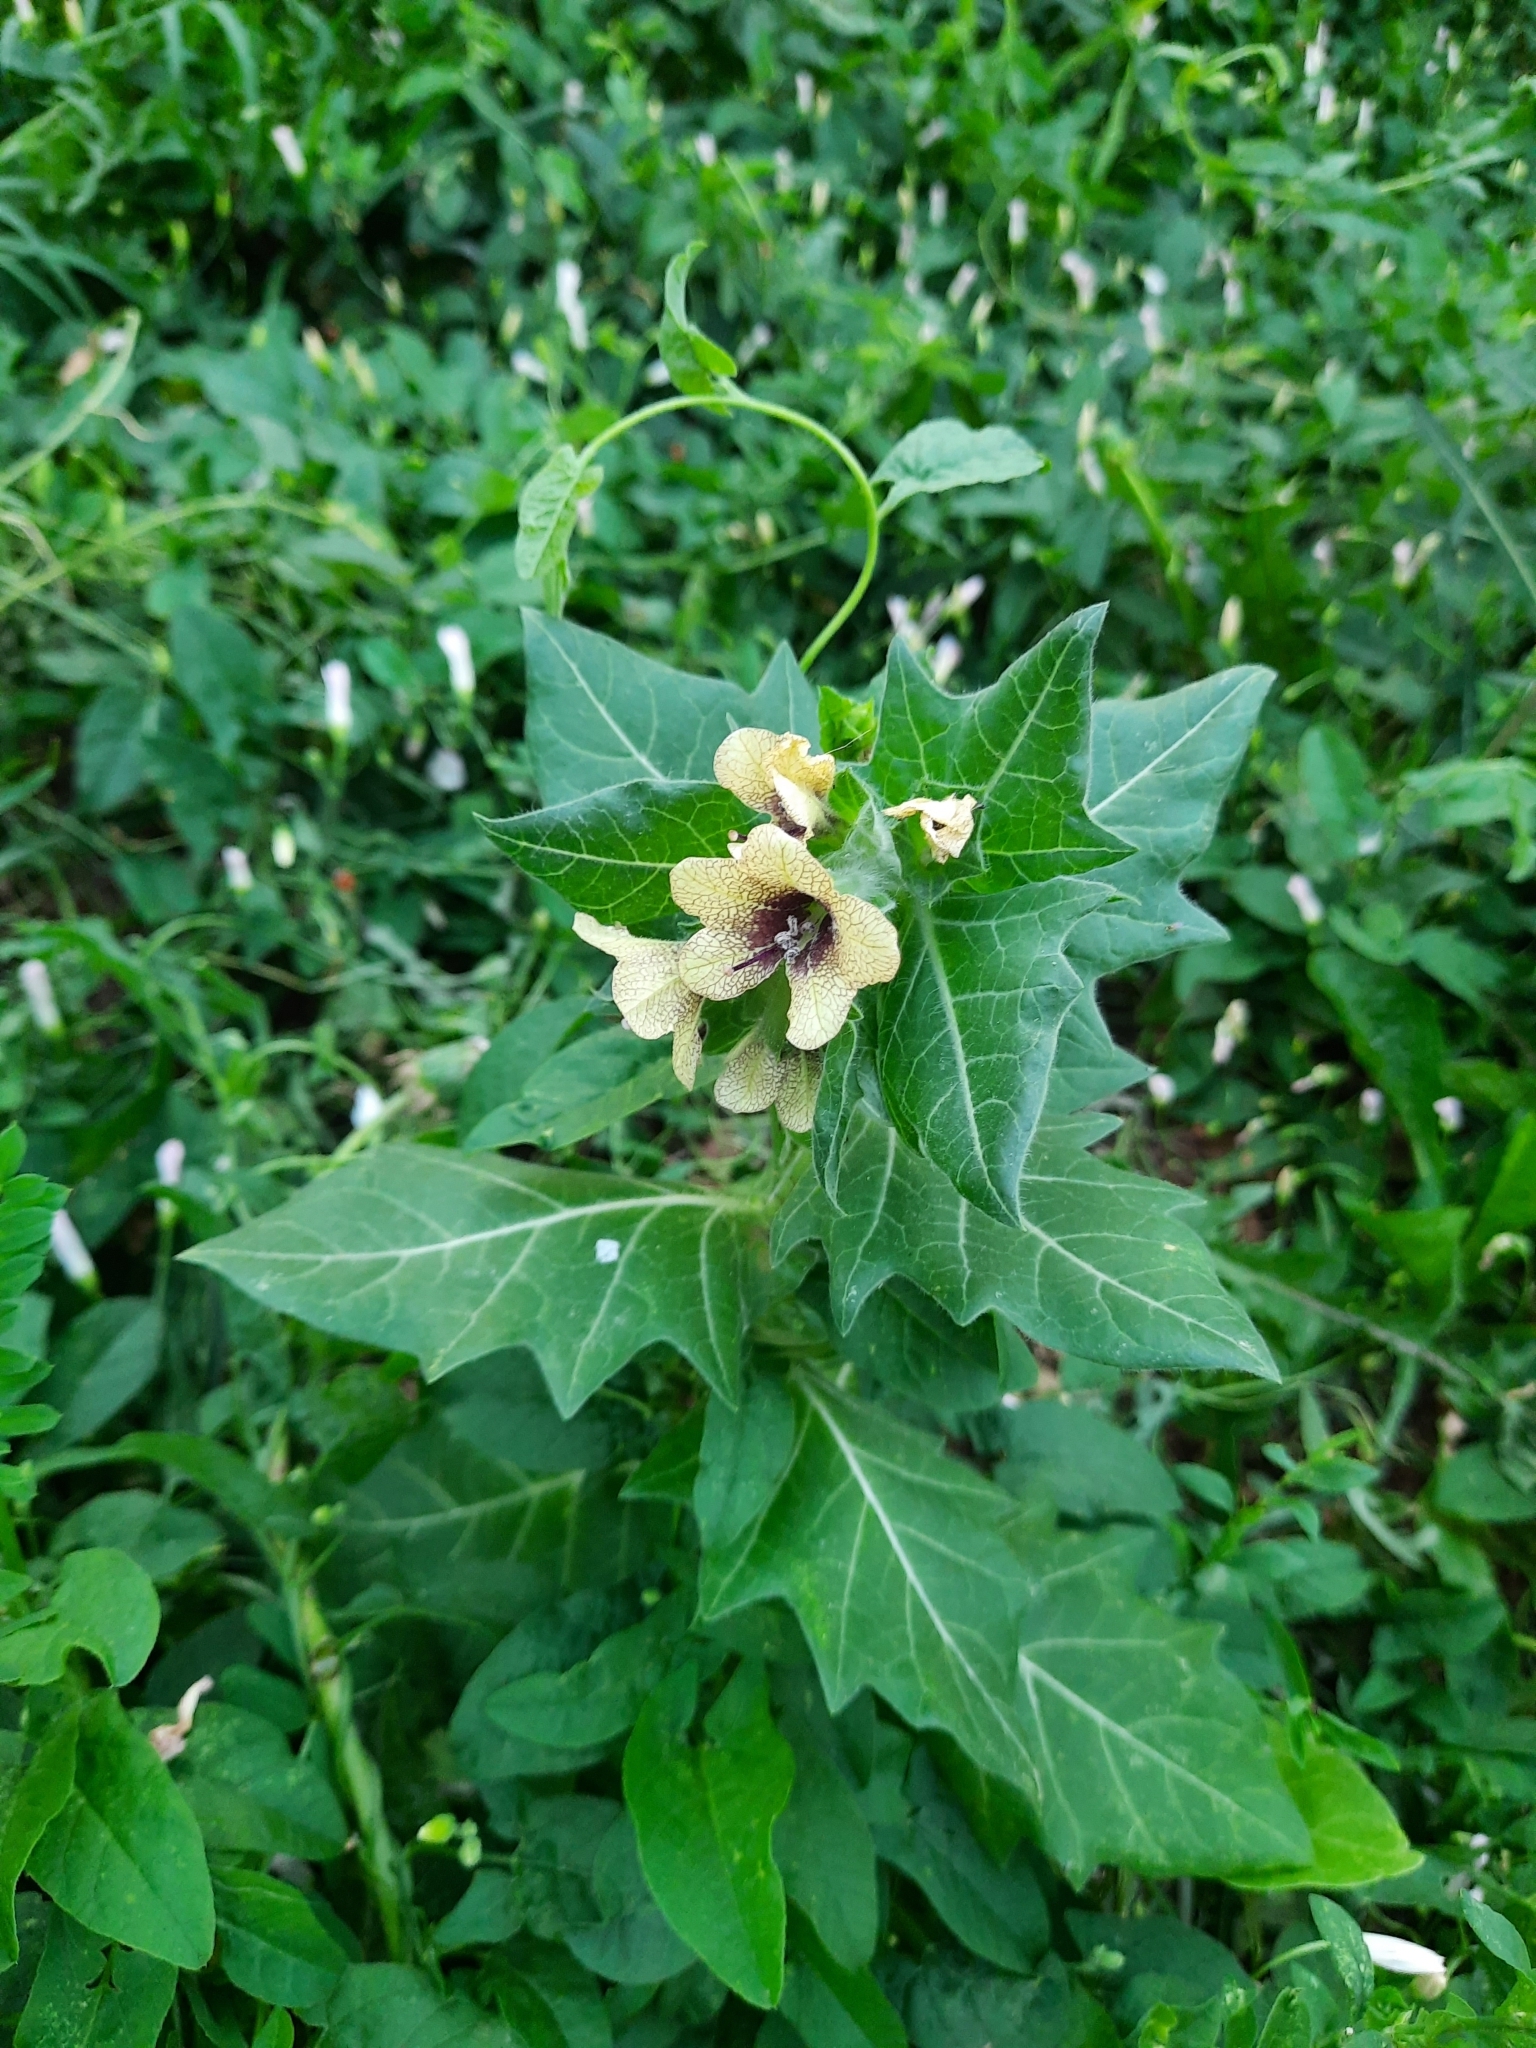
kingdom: Plantae
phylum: Tracheophyta
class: Magnoliopsida
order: Solanales
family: Solanaceae
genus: Hyoscyamus
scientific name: Hyoscyamus niger
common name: Henbane
